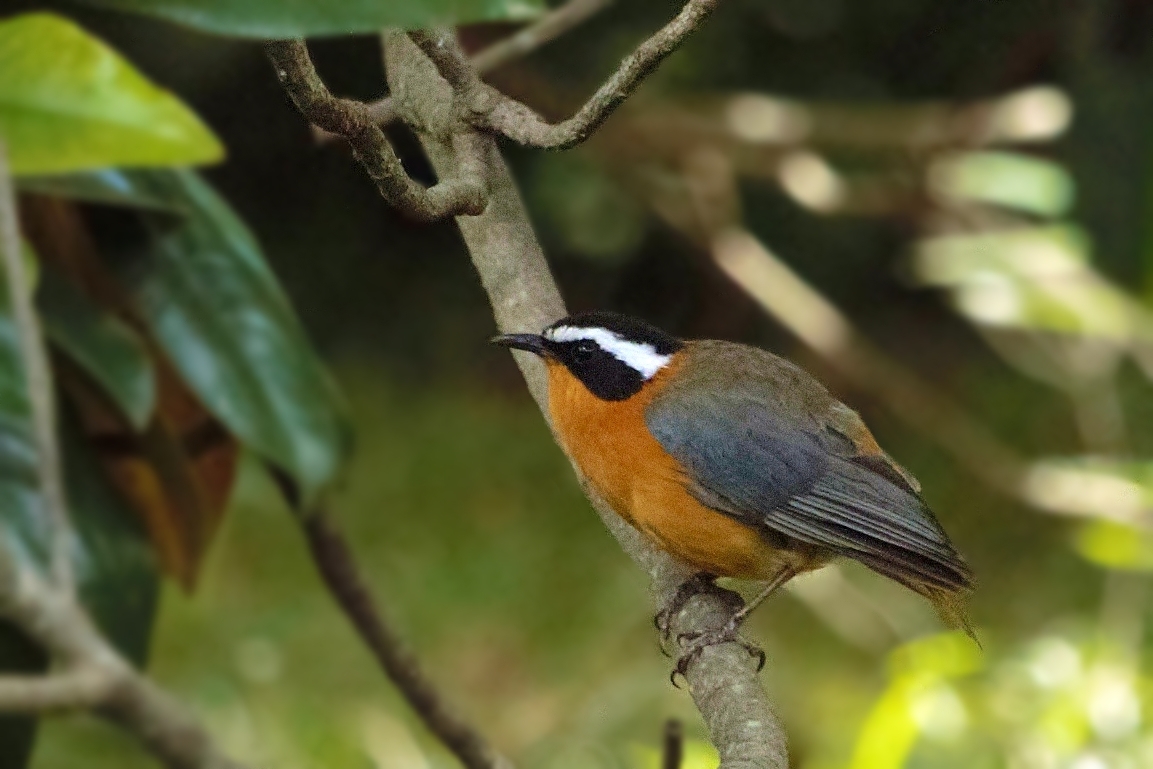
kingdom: Animalia
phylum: Chordata
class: Aves
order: Passeriformes
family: Muscicapidae
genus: Cossypha
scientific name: Cossypha heuglini
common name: White-browed robin-chat
